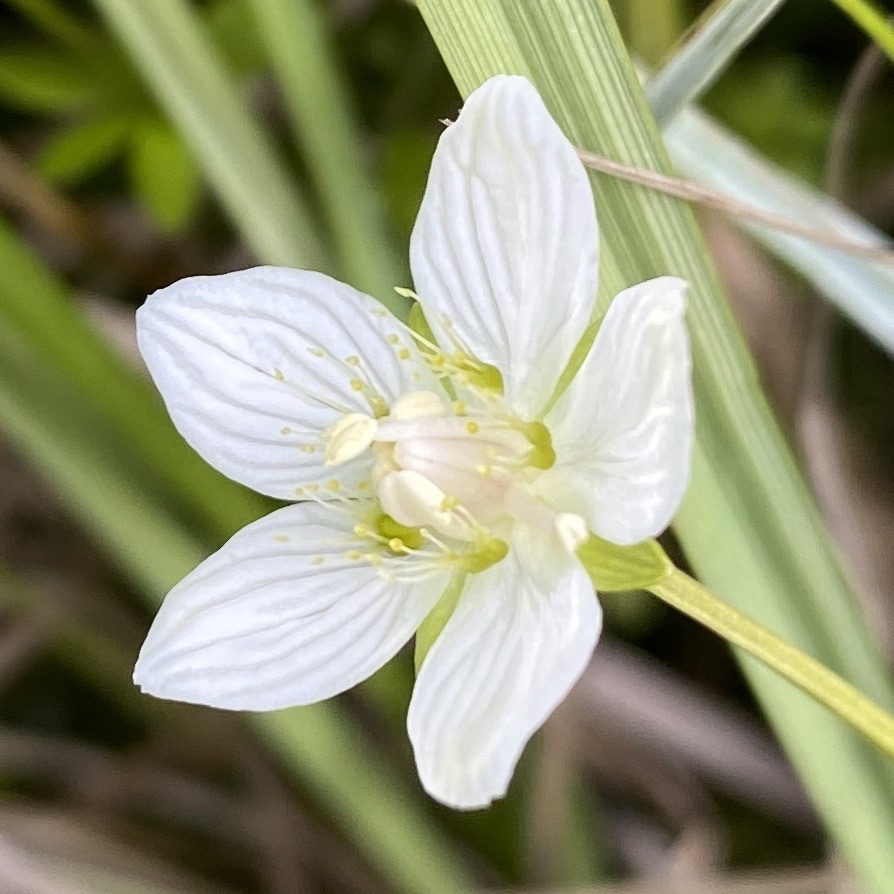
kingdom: Plantae
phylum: Tracheophyta
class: Magnoliopsida
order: Celastrales
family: Parnassiaceae
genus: Parnassia
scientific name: Parnassia palustris
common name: Grass-of-parnassus
